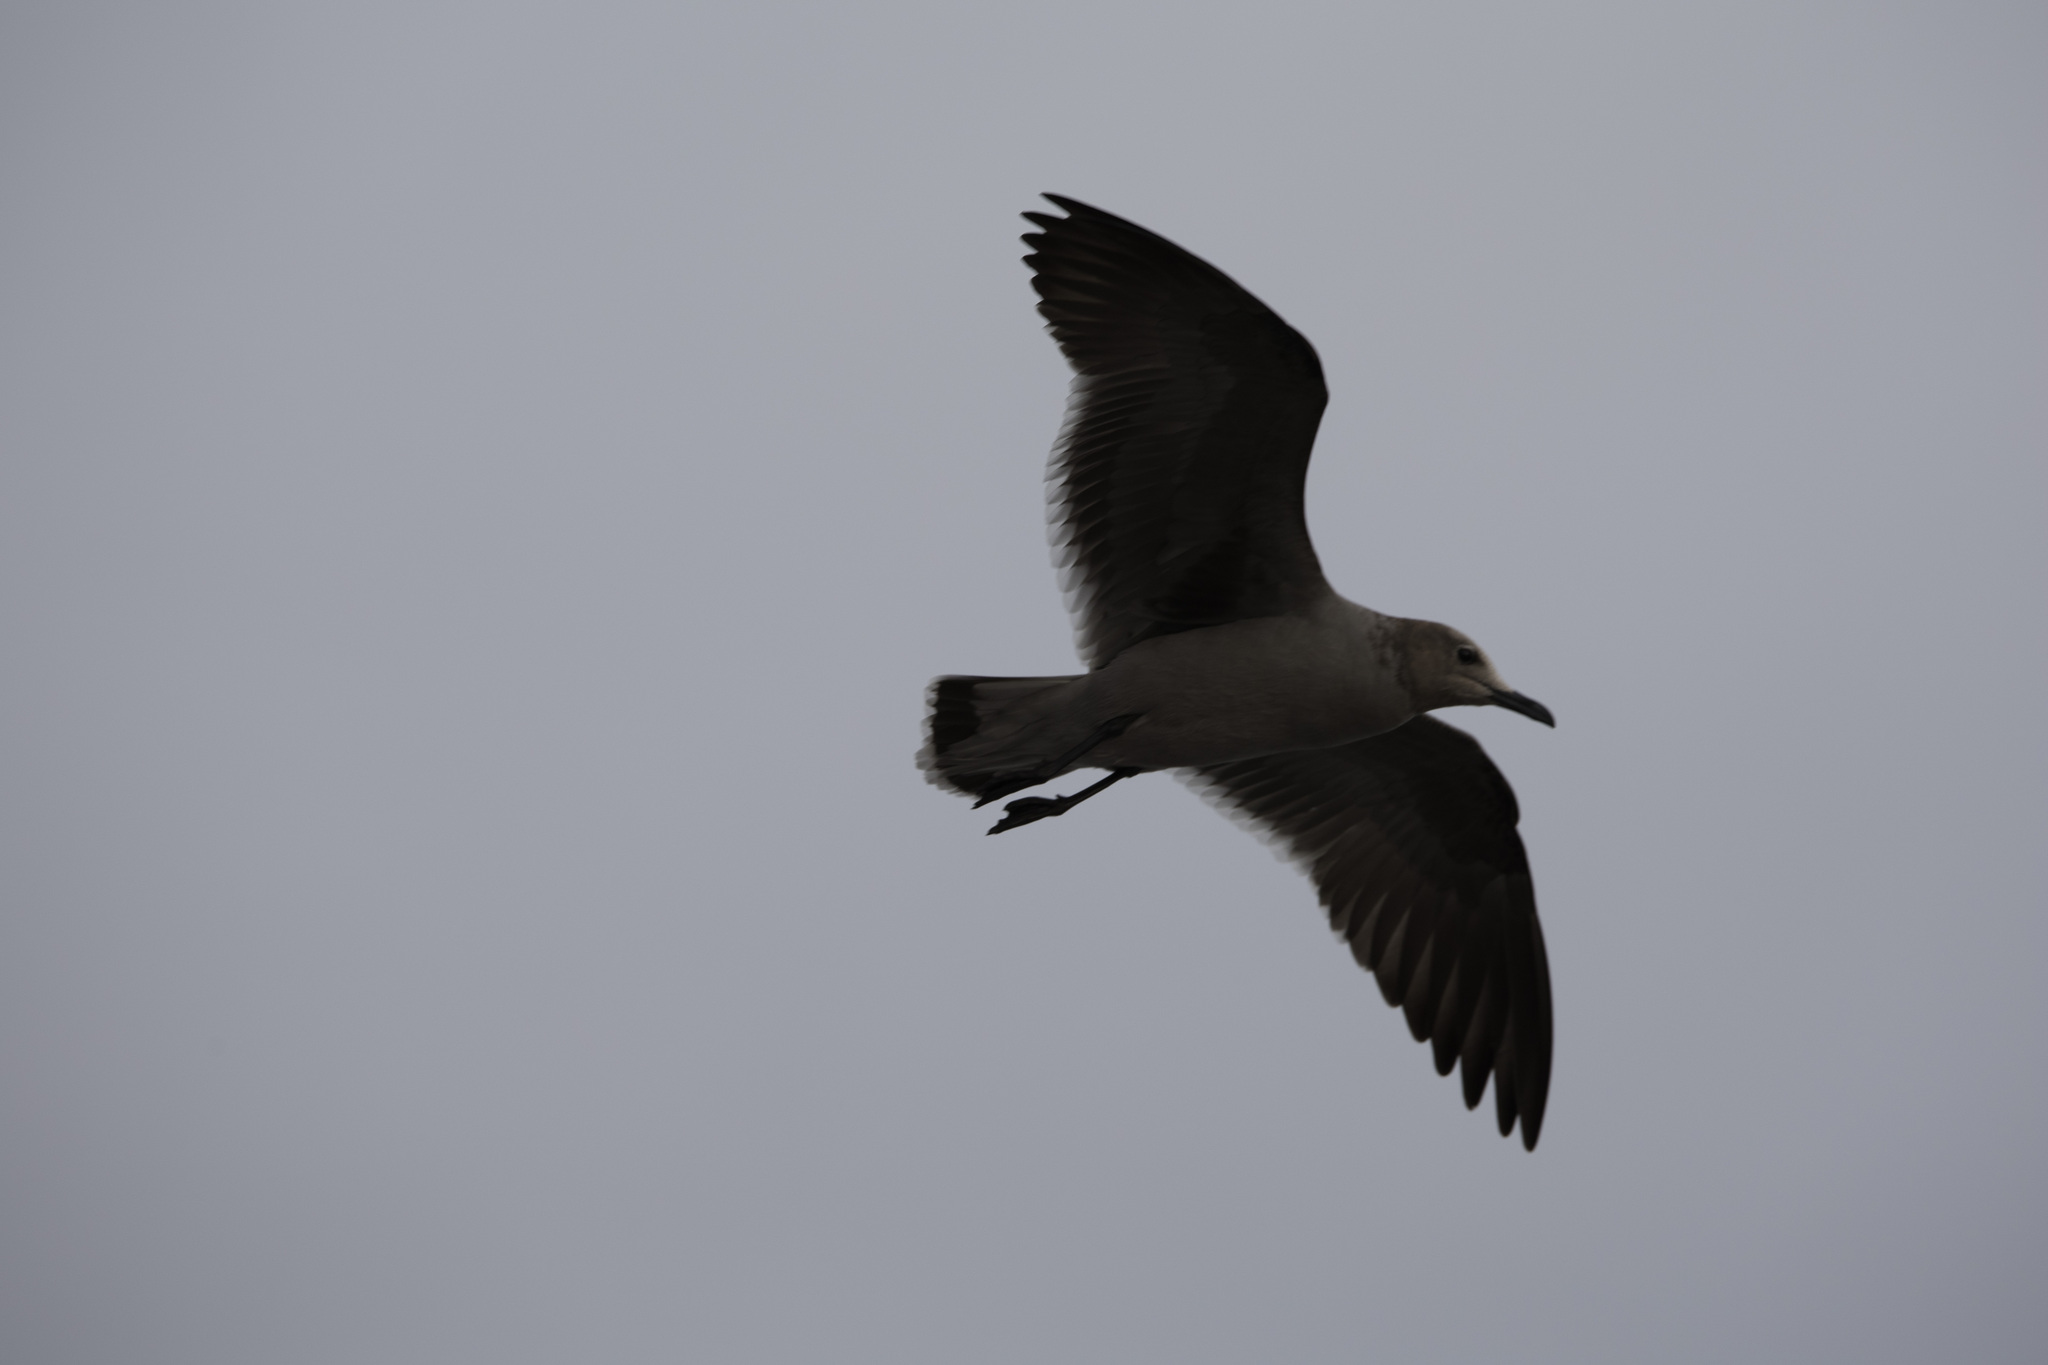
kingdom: Animalia
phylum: Chordata
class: Aves
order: Charadriiformes
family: Laridae
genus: Leucophaeus
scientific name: Leucophaeus modestus
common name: Gray gull
